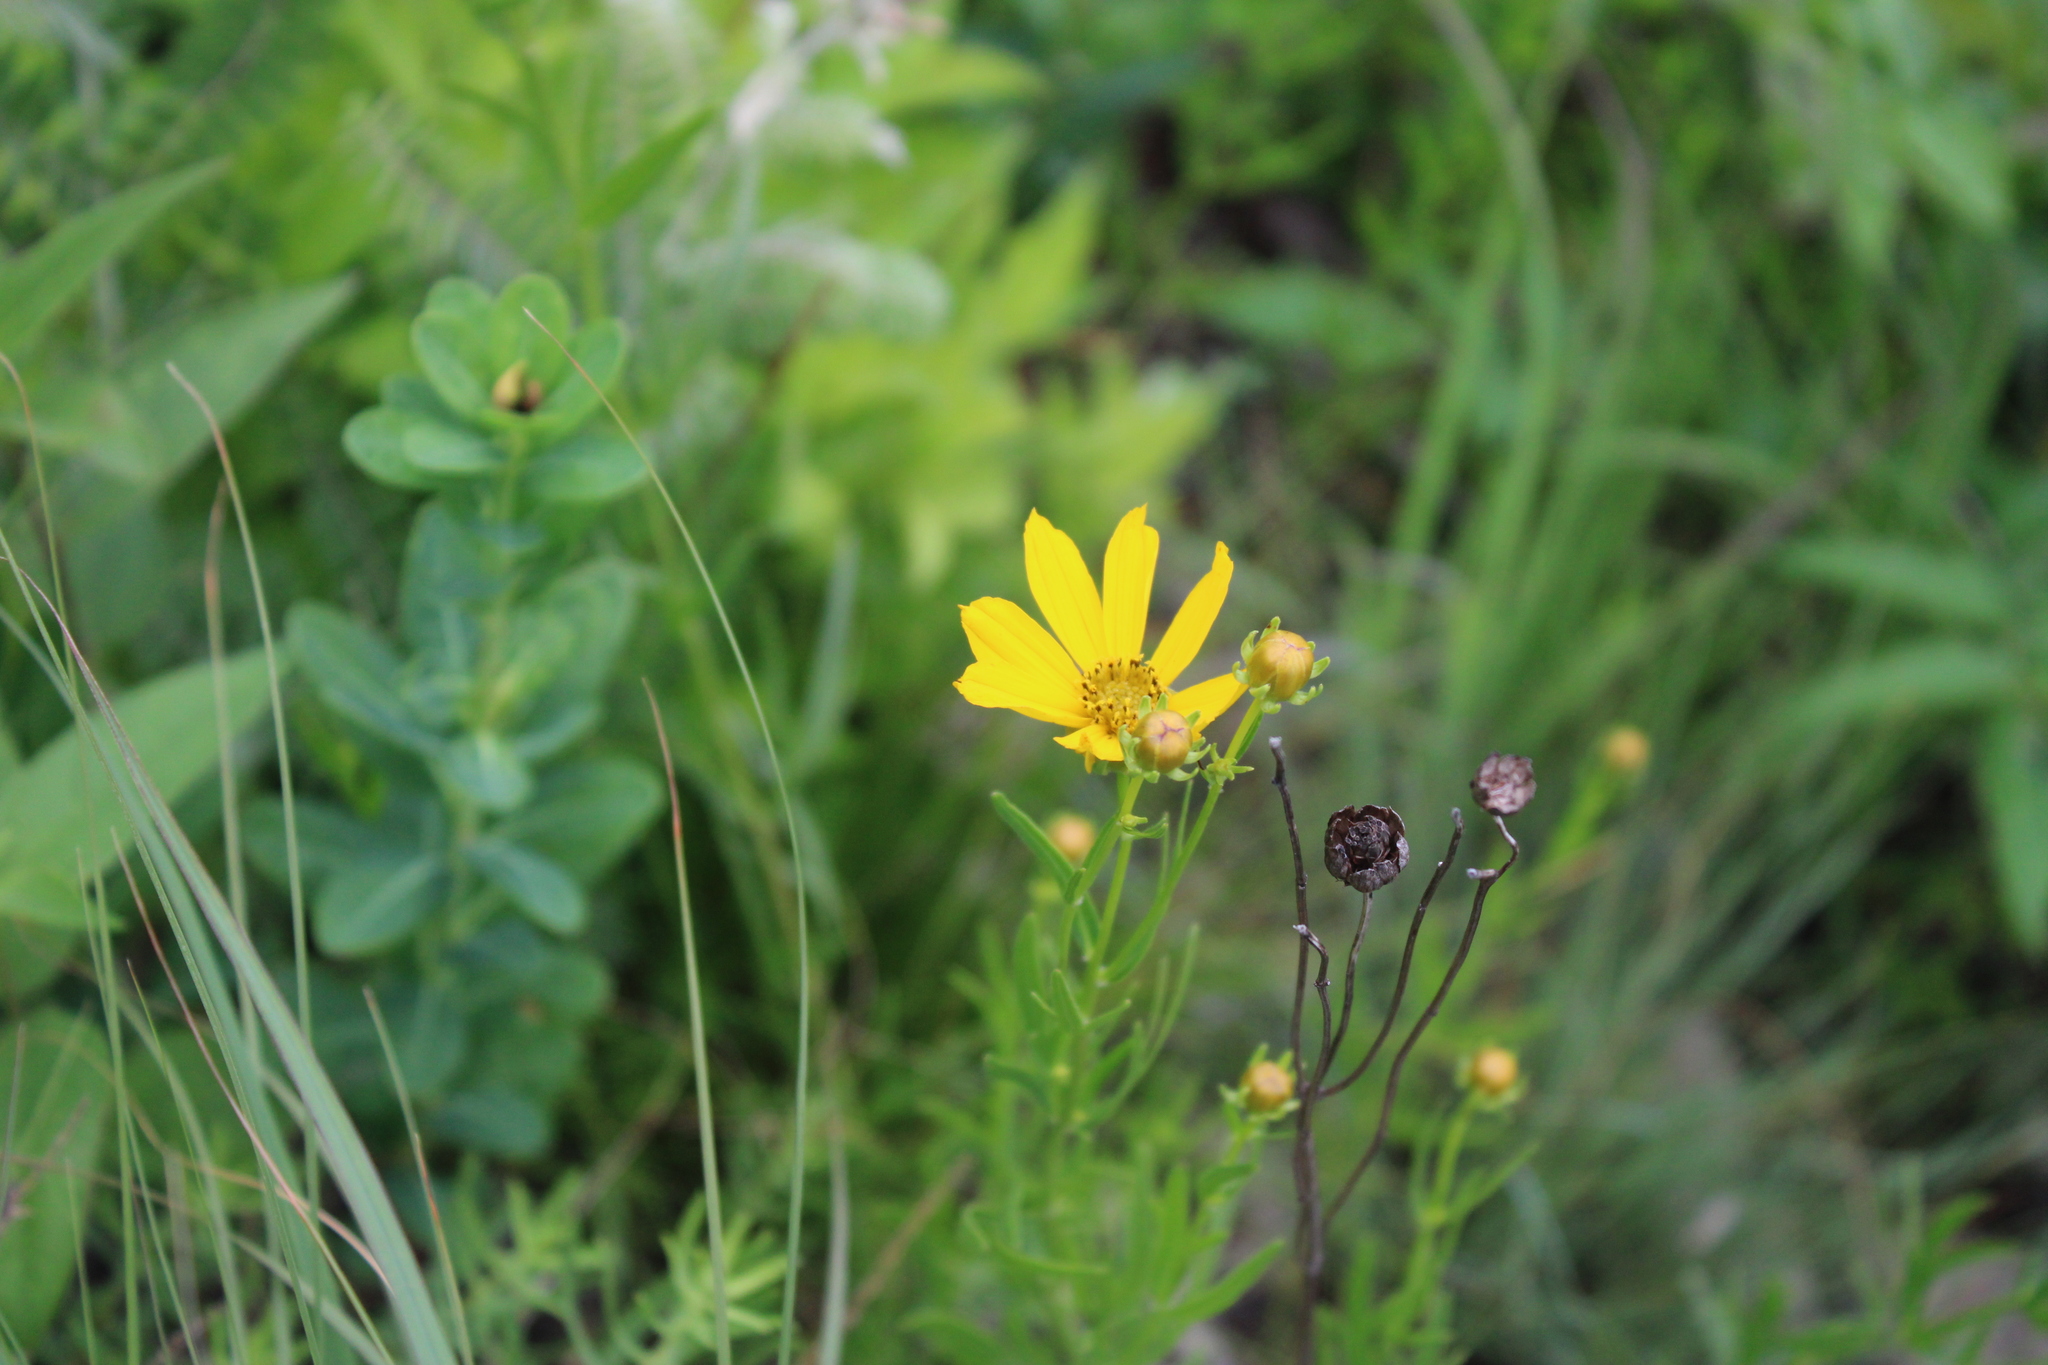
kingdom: Plantae
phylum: Tracheophyta
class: Magnoliopsida
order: Asterales
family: Asteraceae
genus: Coreopsis
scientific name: Coreopsis palmata
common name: Prairie coreopsis
